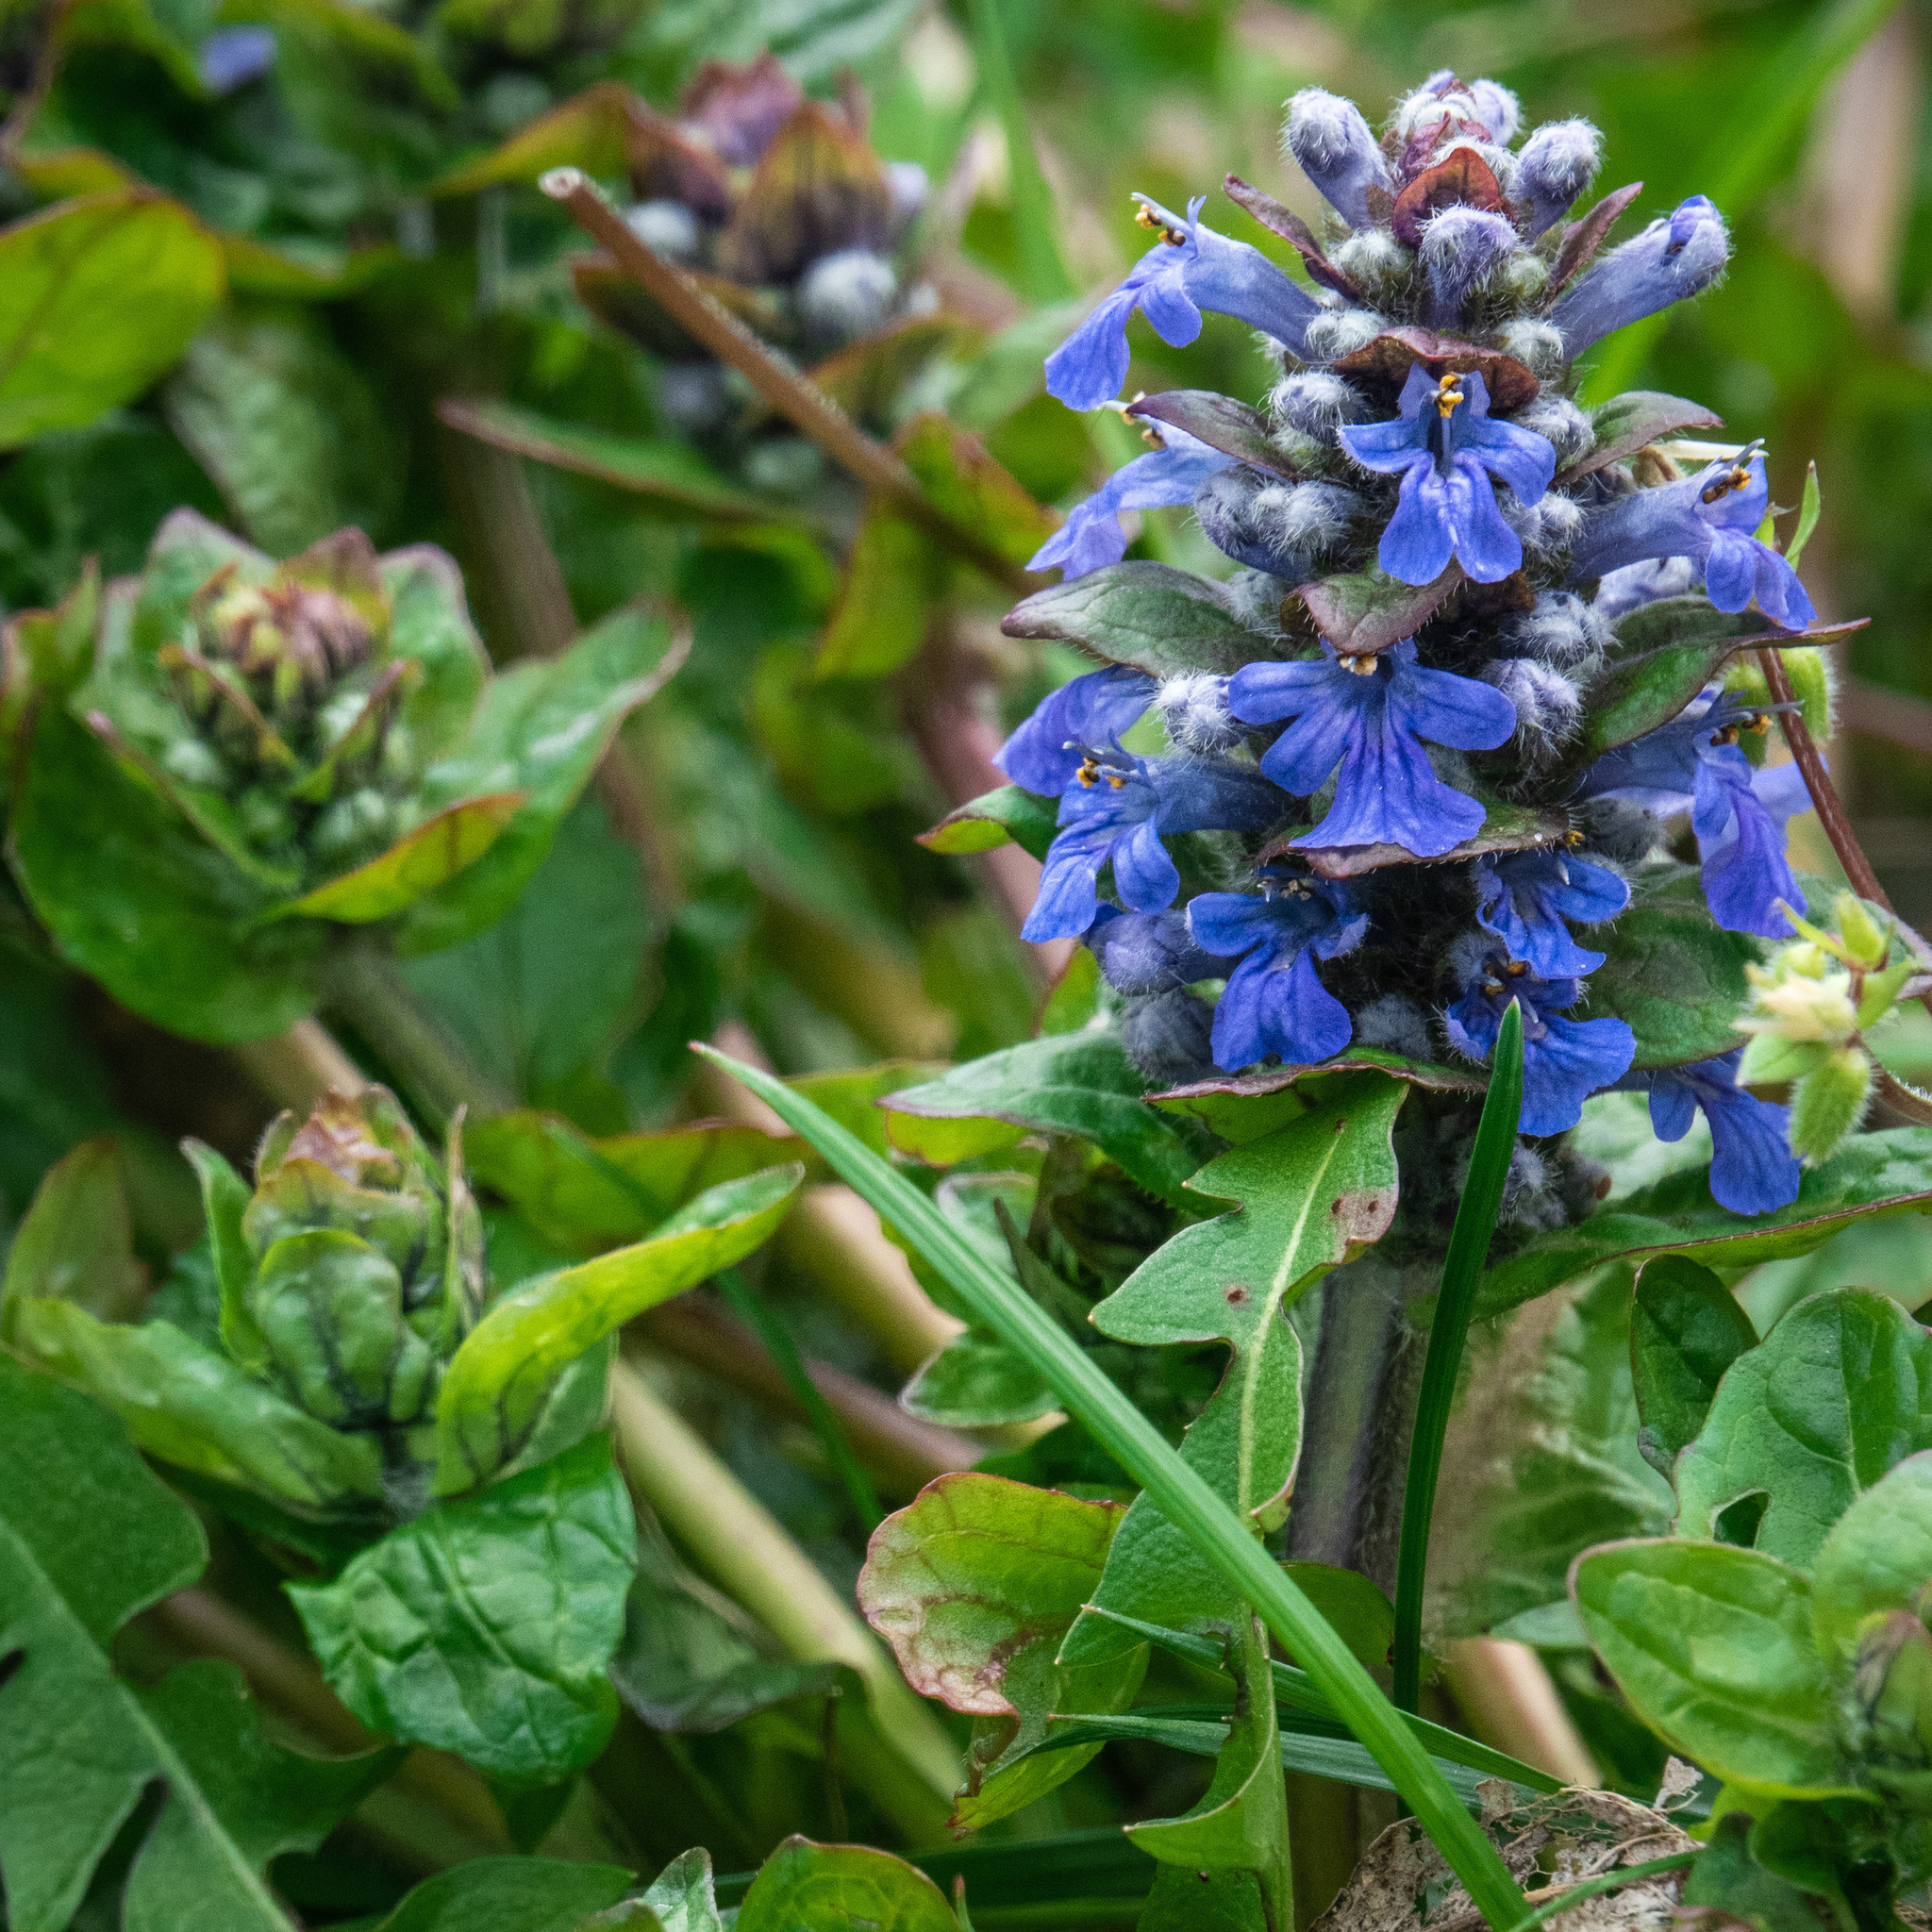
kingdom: Plantae
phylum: Tracheophyta
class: Magnoliopsida
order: Lamiales
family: Lamiaceae
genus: Ajuga
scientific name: Ajuga reptans
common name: Bugle
